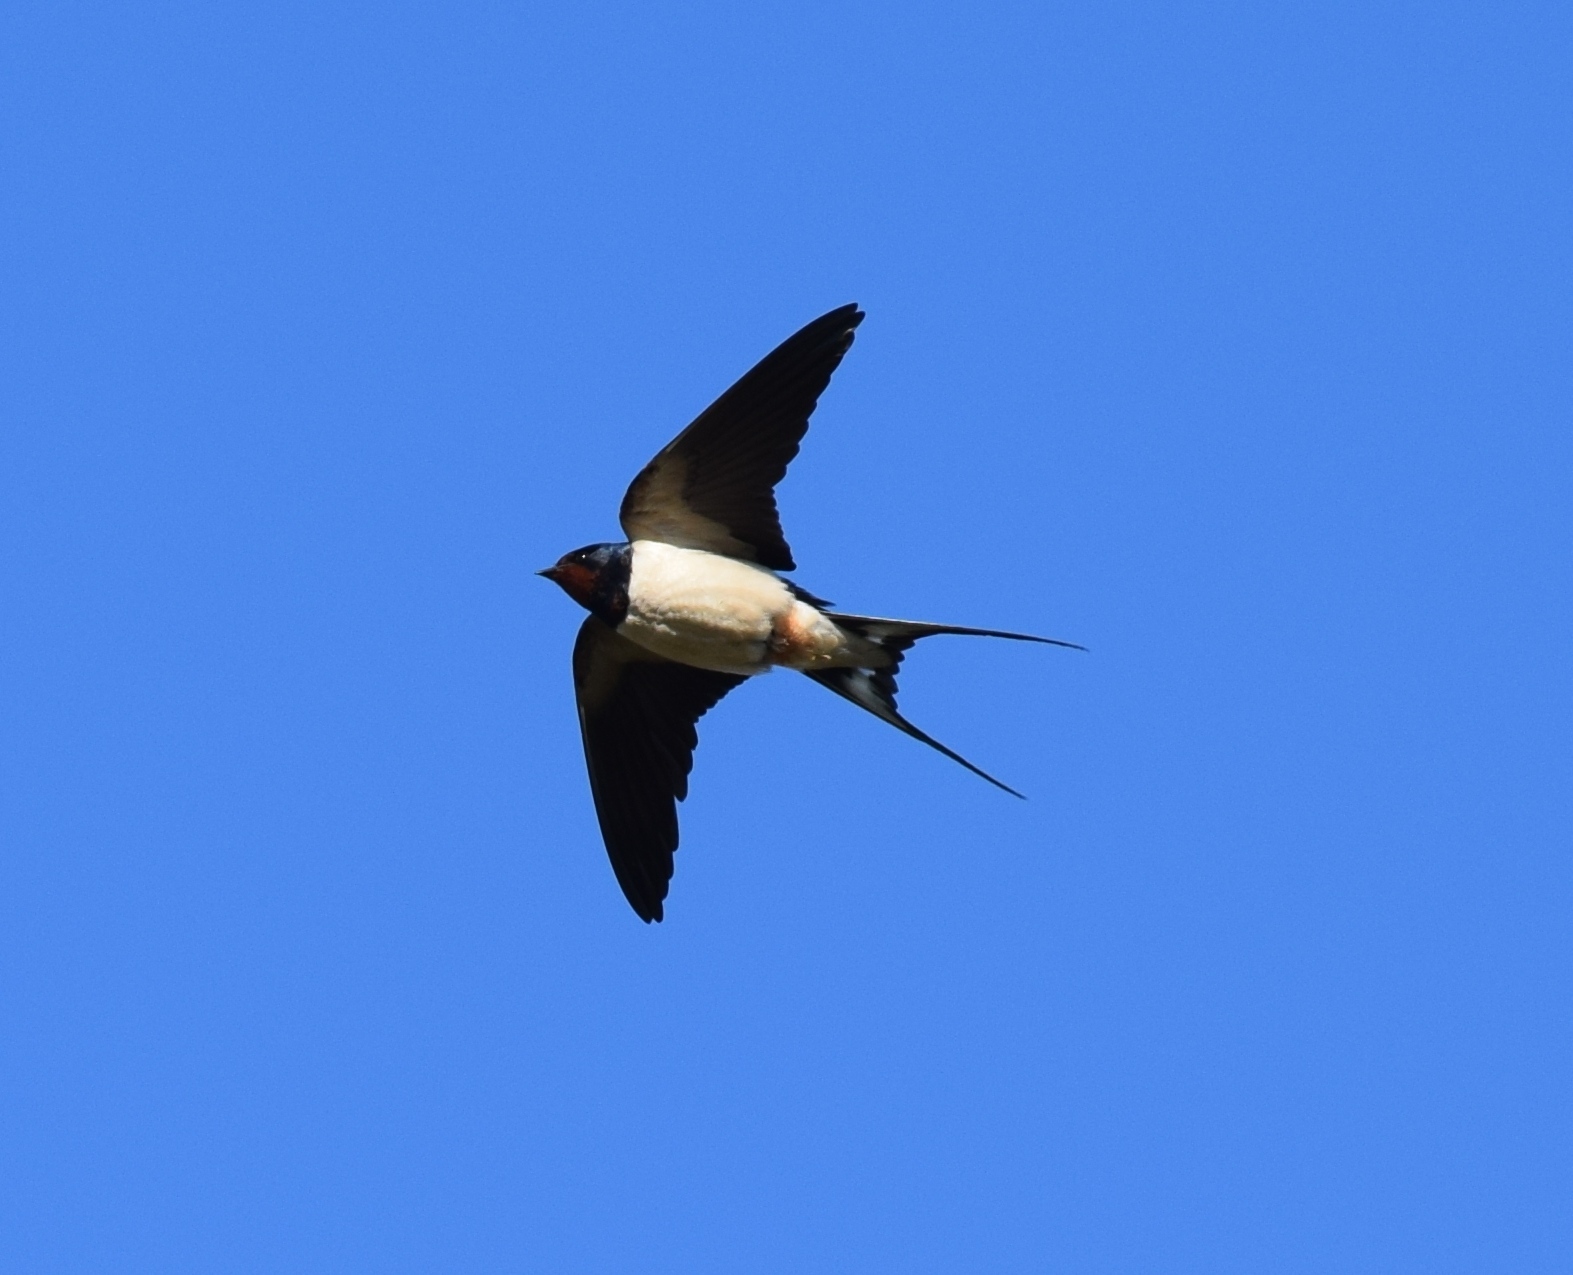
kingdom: Animalia
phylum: Chordata
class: Aves
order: Passeriformes
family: Hirundinidae
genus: Hirundo
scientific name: Hirundo rustica
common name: Barn swallow
